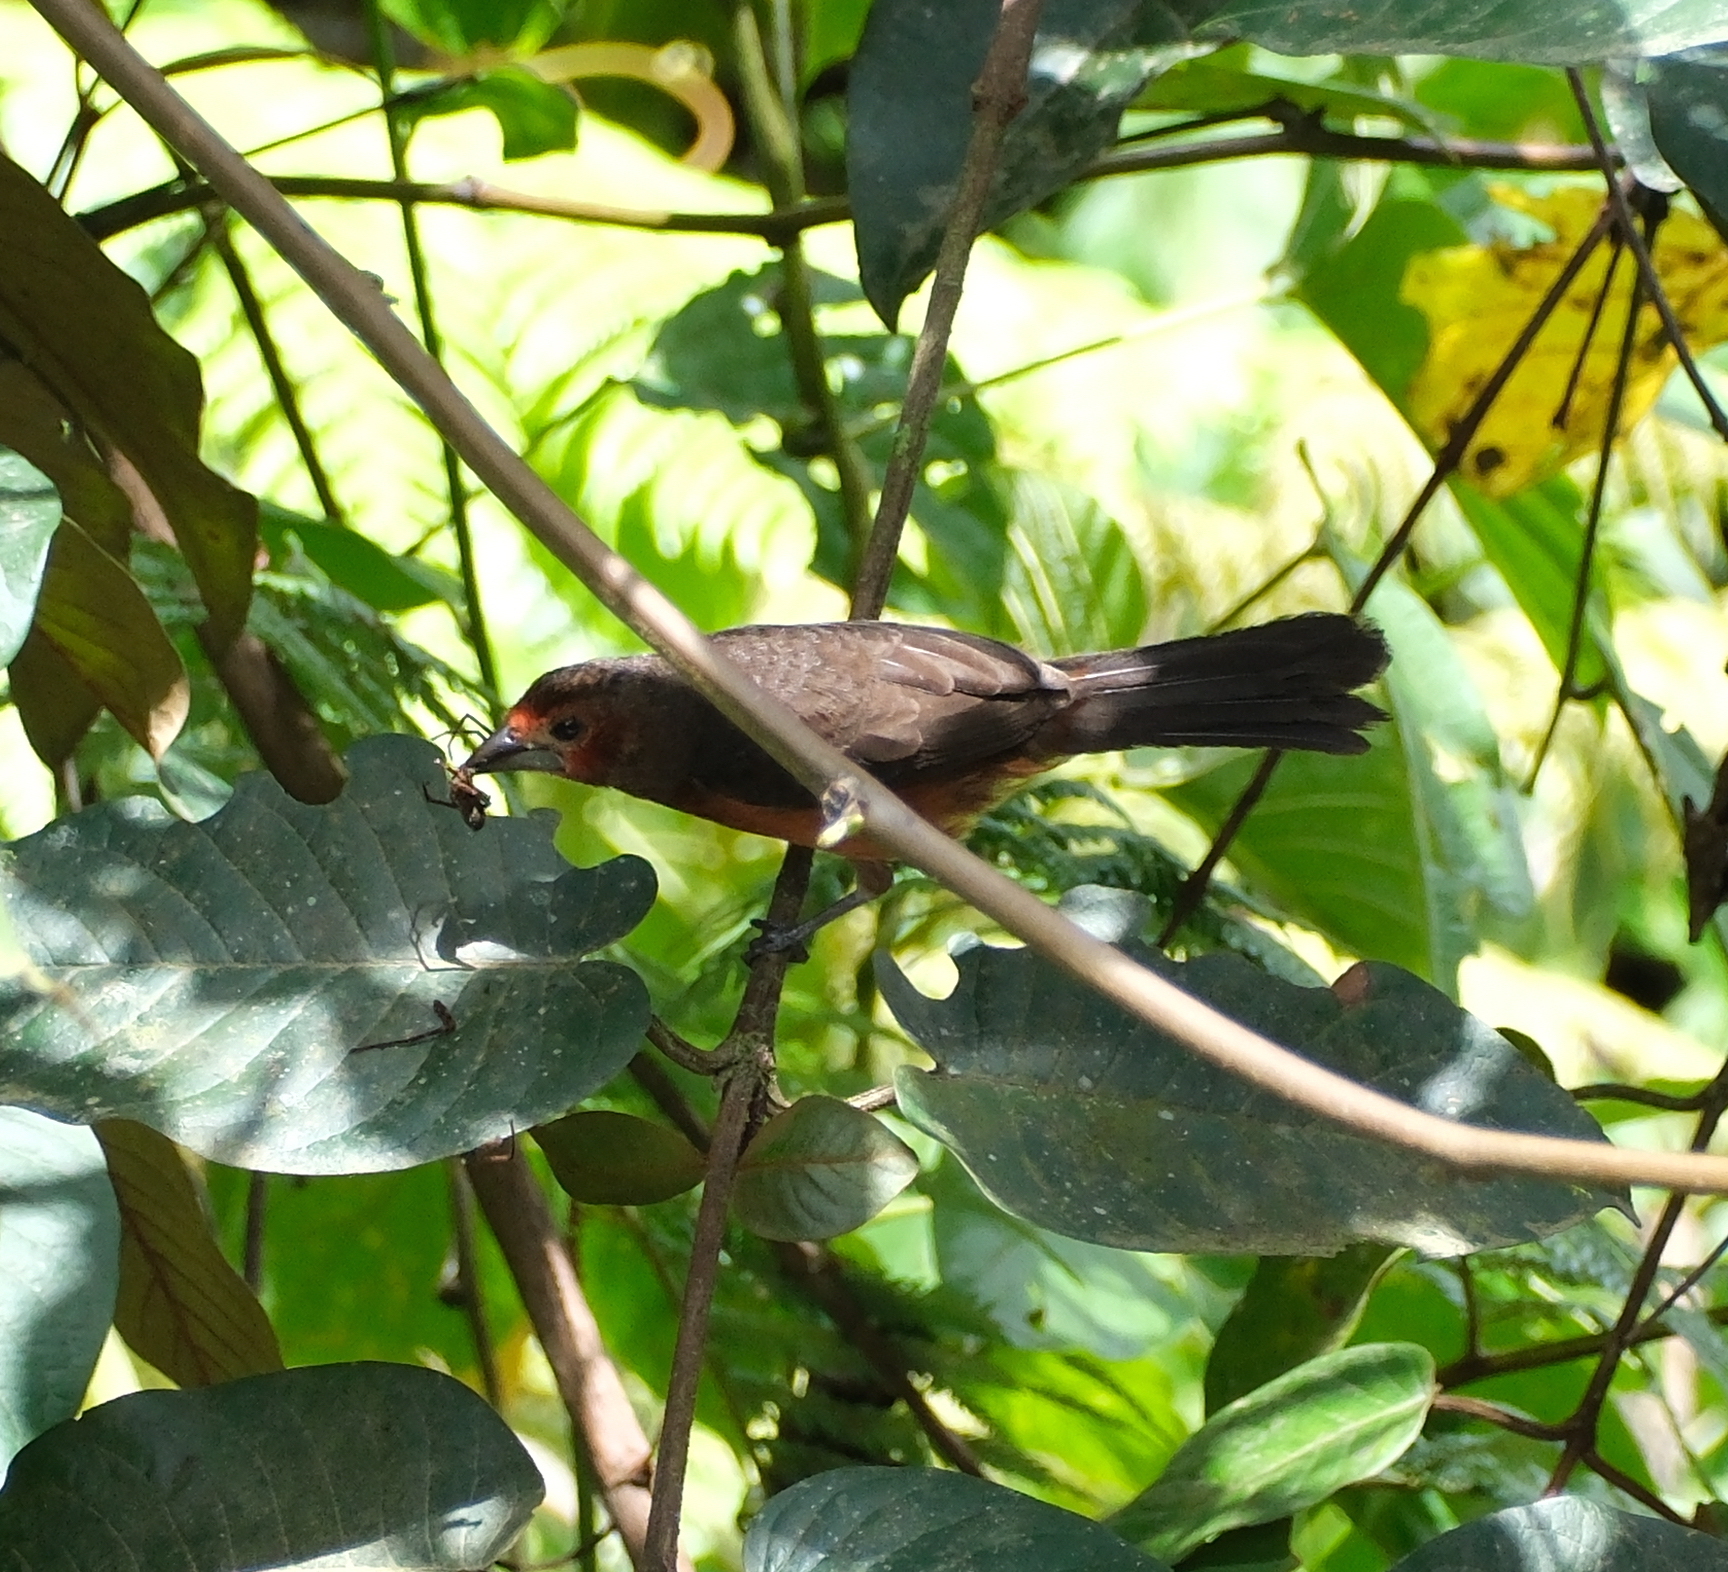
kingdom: Animalia
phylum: Chordata
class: Aves
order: Passeriformes
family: Thraupidae
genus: Ramphocelus
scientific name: Ramphocelus carbo
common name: Silver-beaked tanager
